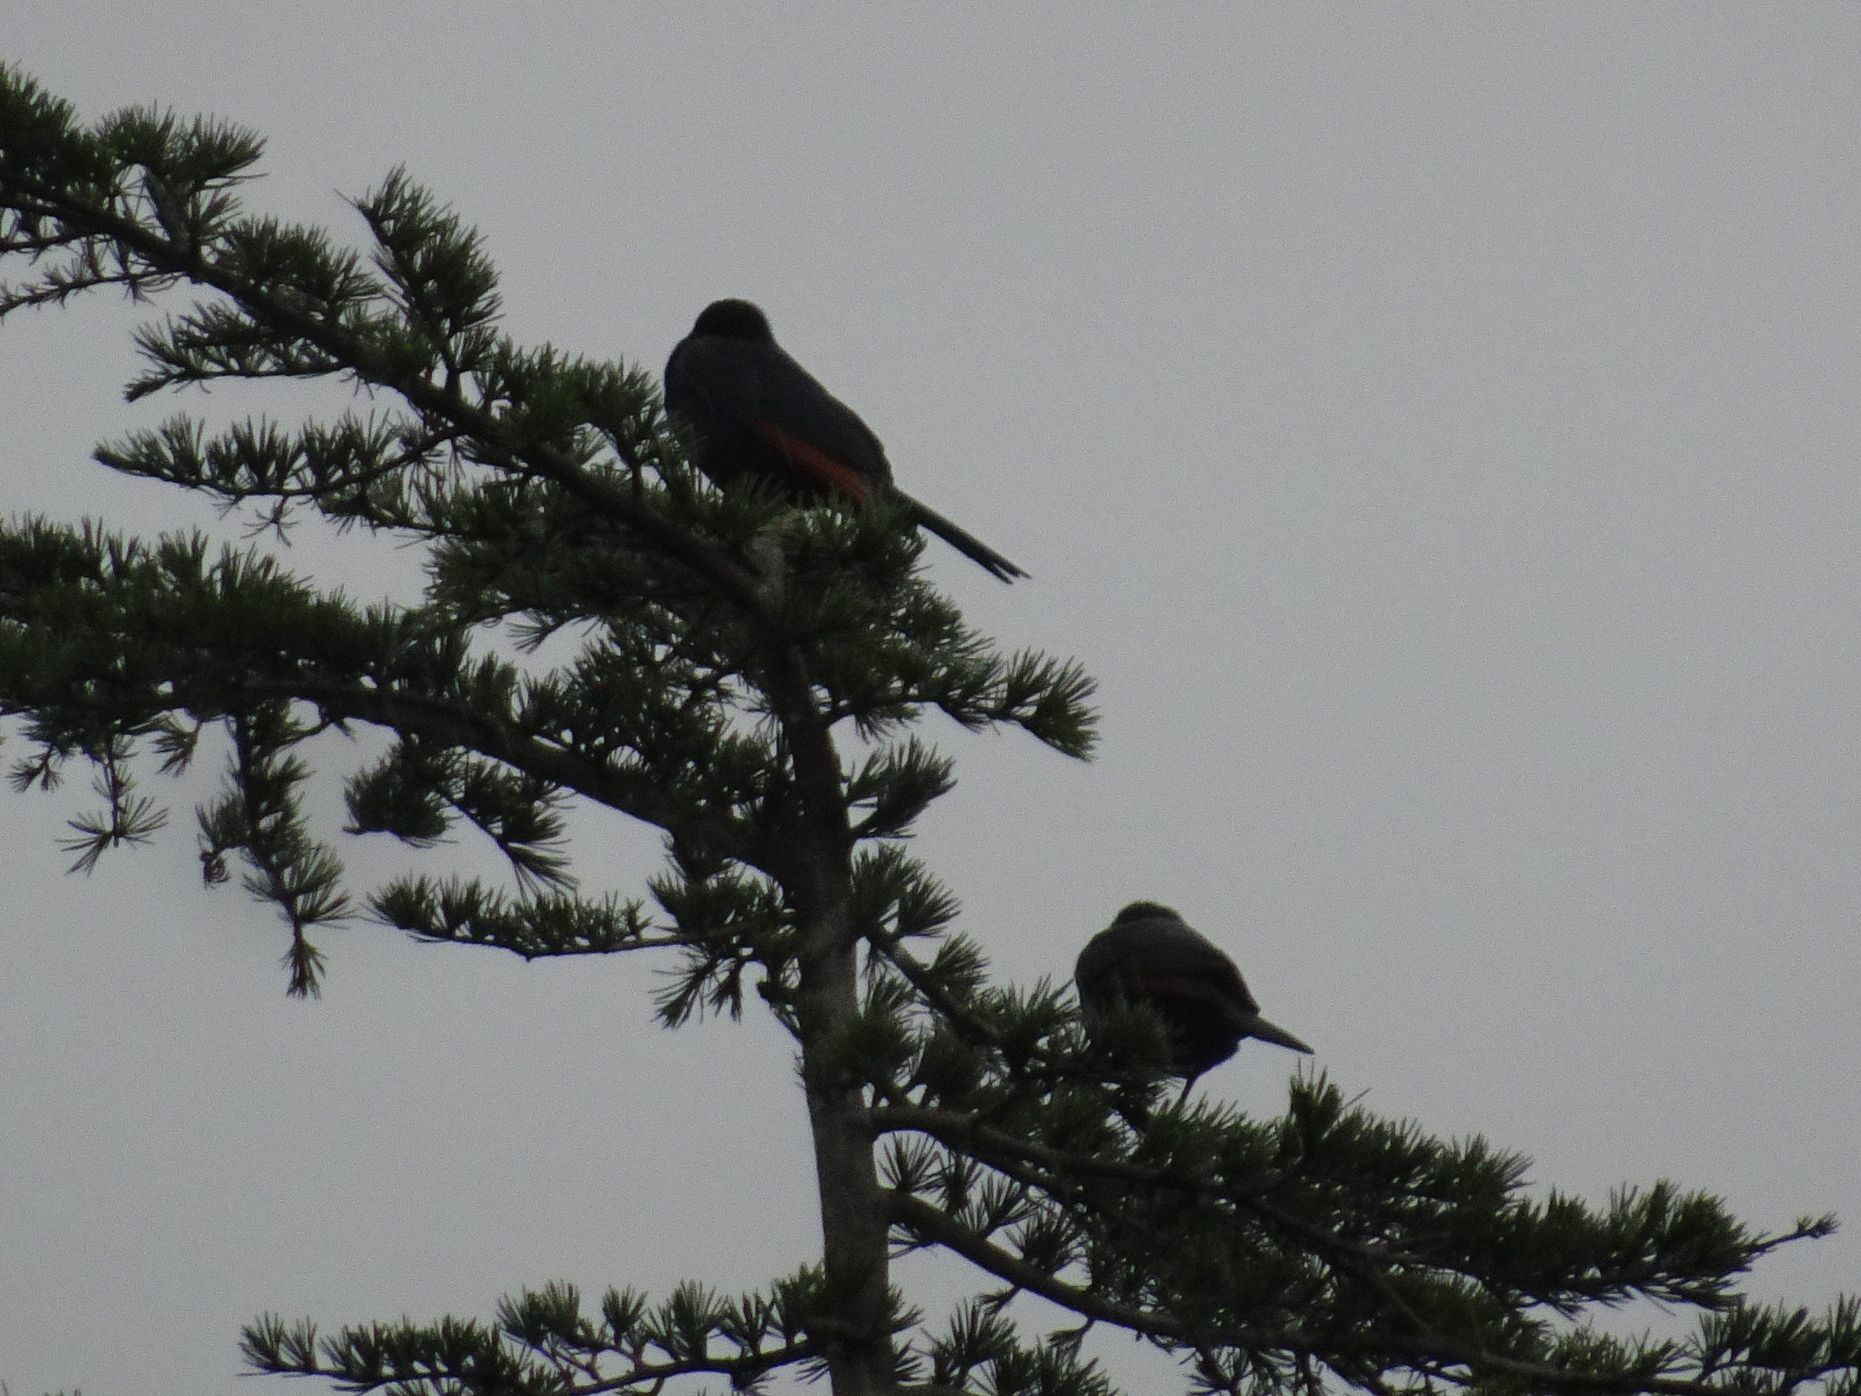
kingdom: Animalia
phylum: Chordata
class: Aves
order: Passeriformes
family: Sturnidae
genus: Onychognathus
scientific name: Onychognathus morio
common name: Red-winged starling
